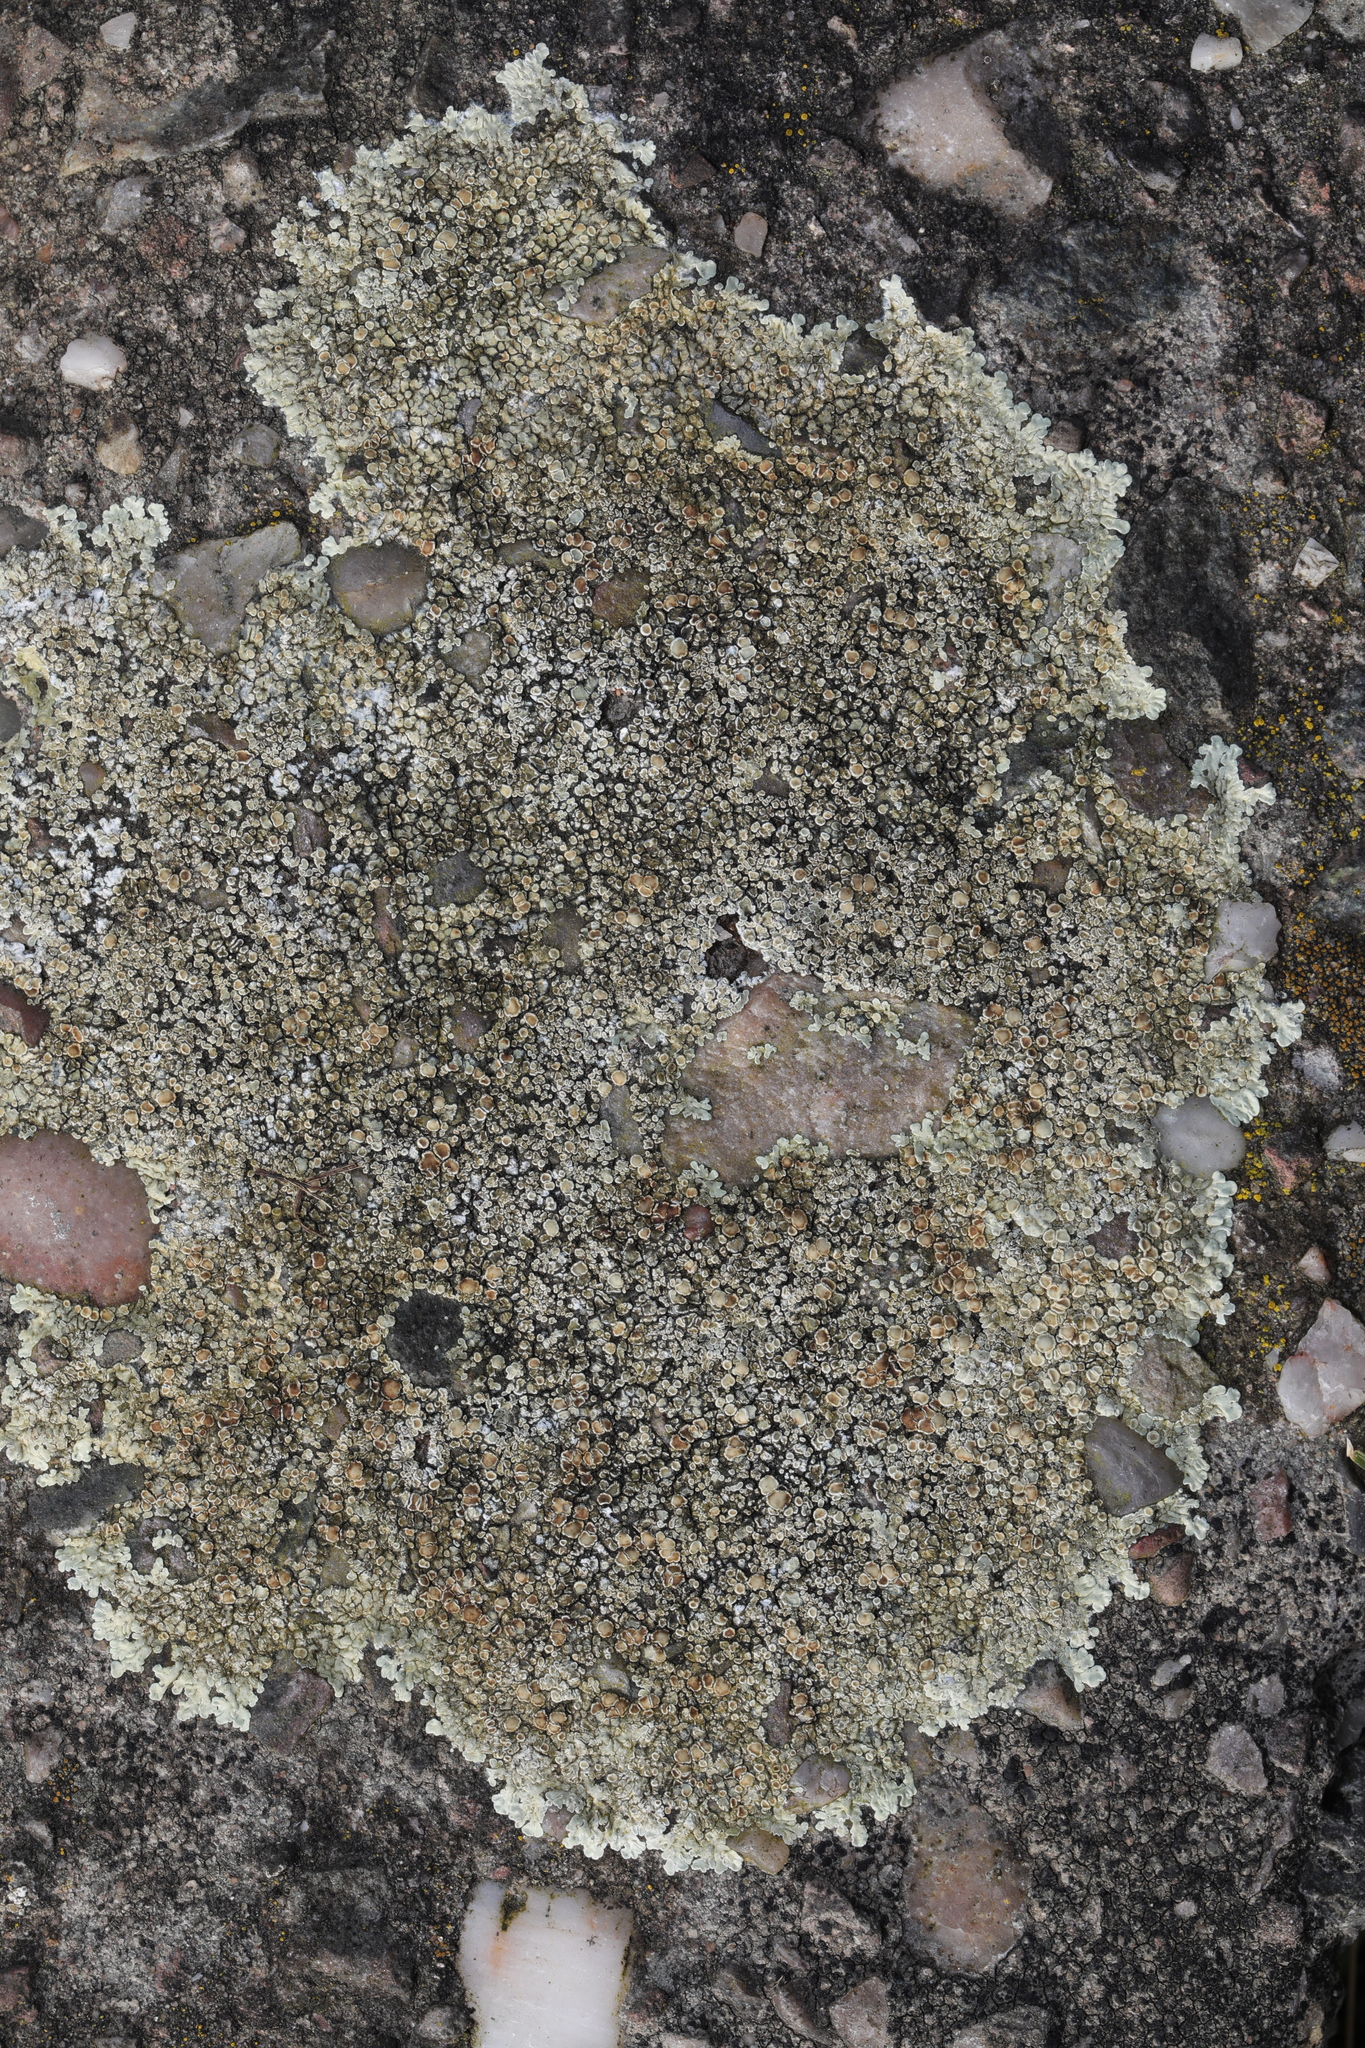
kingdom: Fungi
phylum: Ascomycota
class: Lecanoromycetes
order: Lecanorales
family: Lecanoraceae
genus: Protoparmeliopsis
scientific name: Protoparmeliopsis muralis
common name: Stonewall rim lichen
